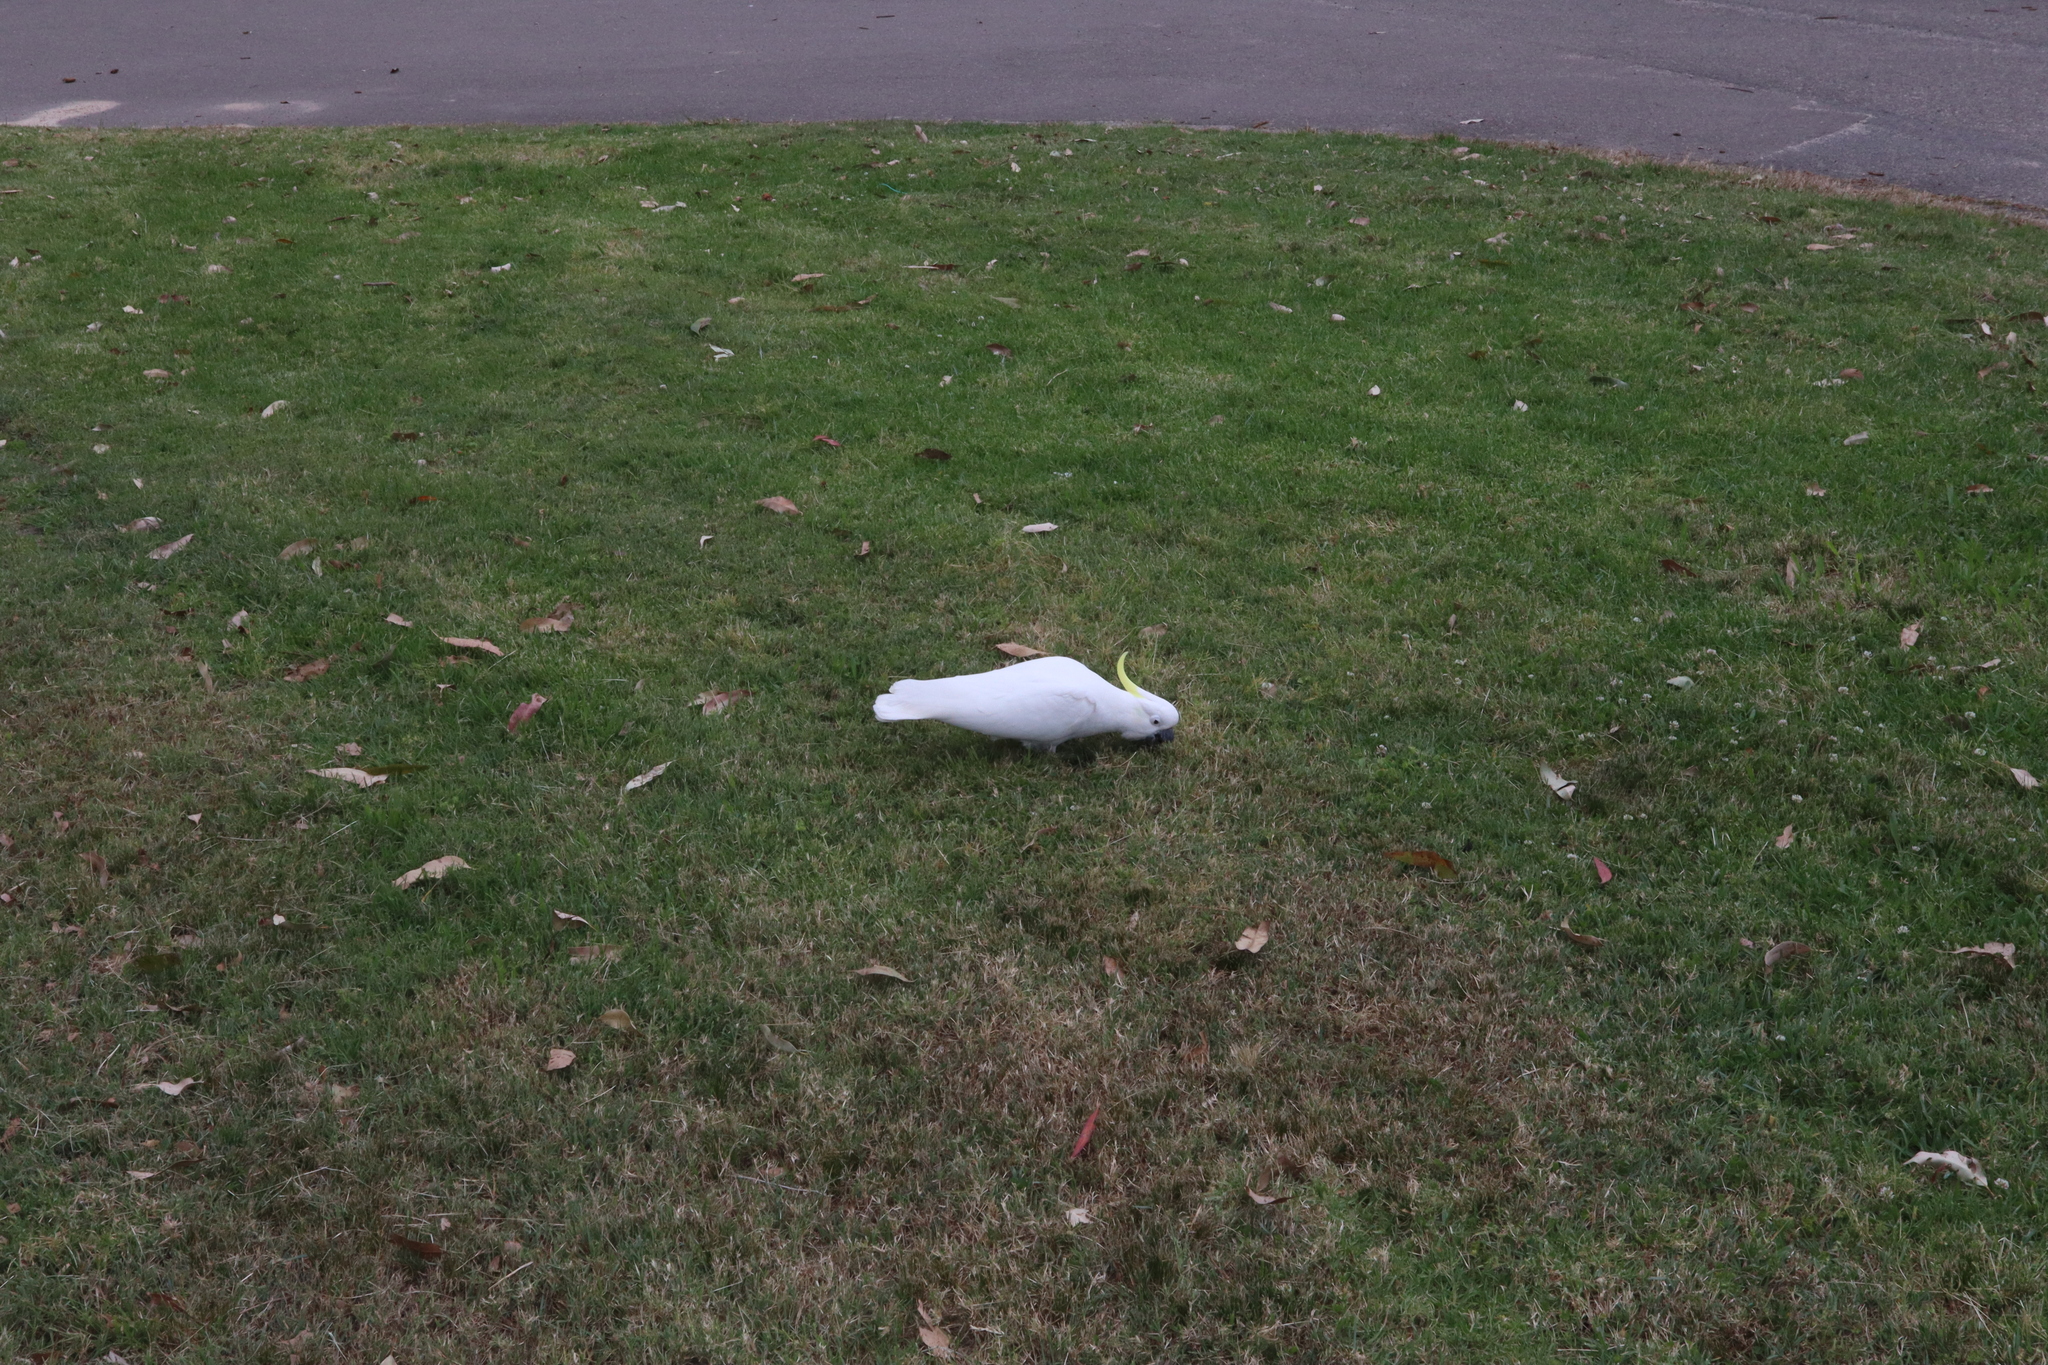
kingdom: Animalia
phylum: Chordata
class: Aves
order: Psittaciformes
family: Psittacidae
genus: Cacatua
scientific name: Cacatua galerita
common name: Sulphur-crested cockatoo
